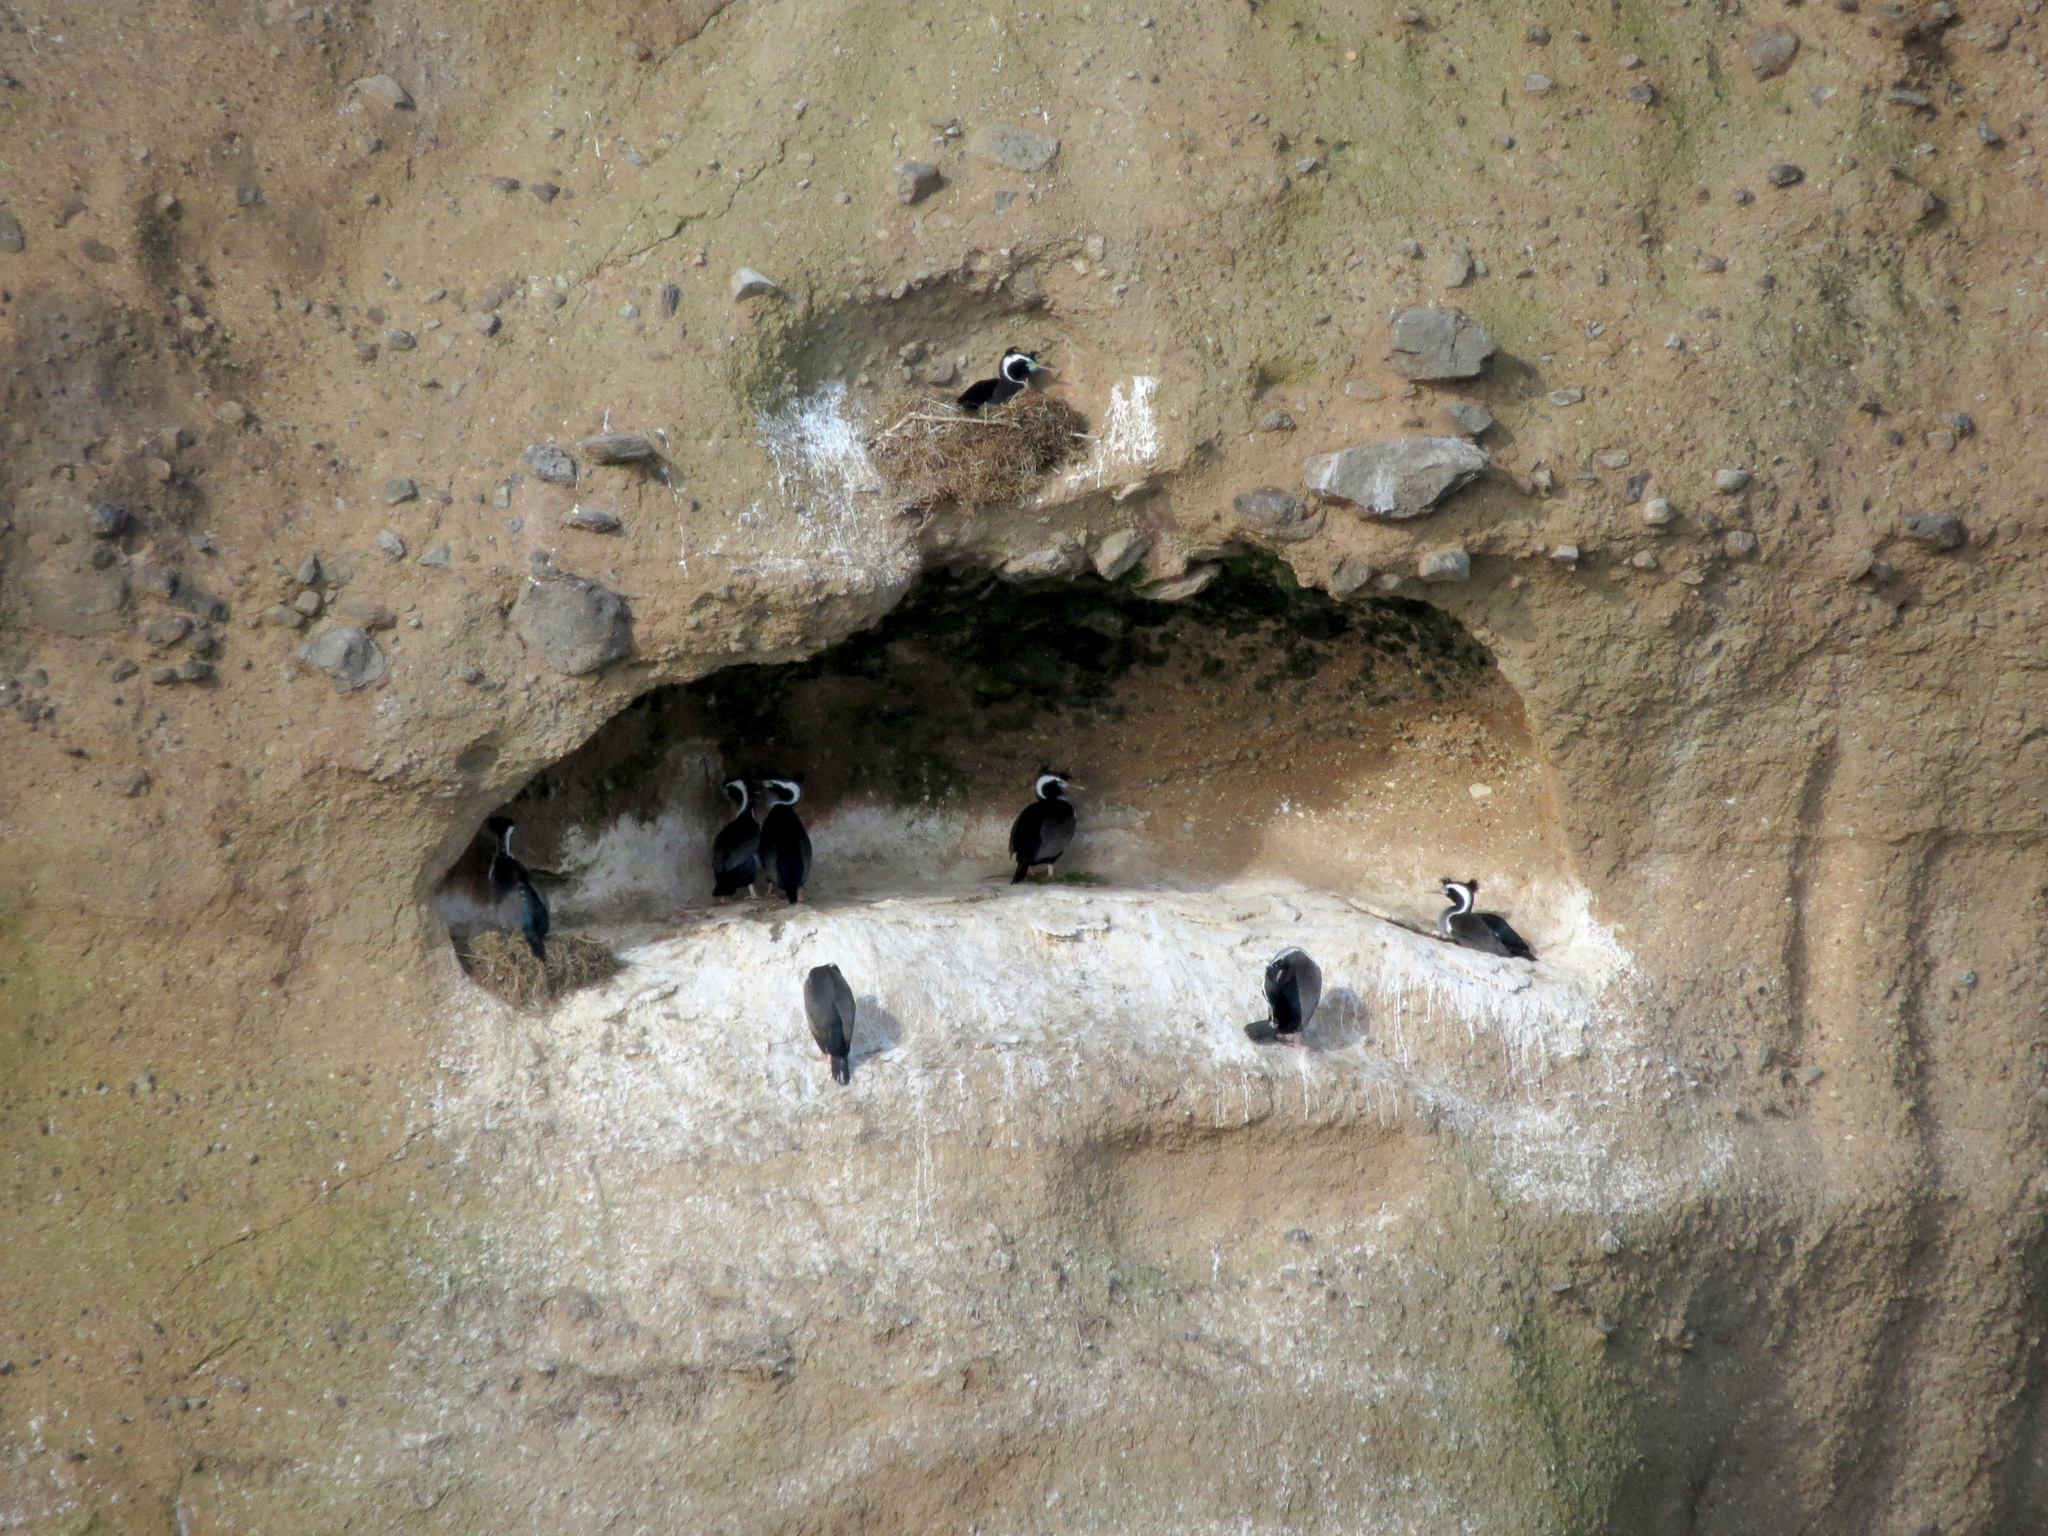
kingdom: Animalia
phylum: Chordata
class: Aves
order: Suliformes
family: Phalacrocoracidae
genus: Phalacrocorax
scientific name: Phalacrocorax punctatus
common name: Spotted shag
